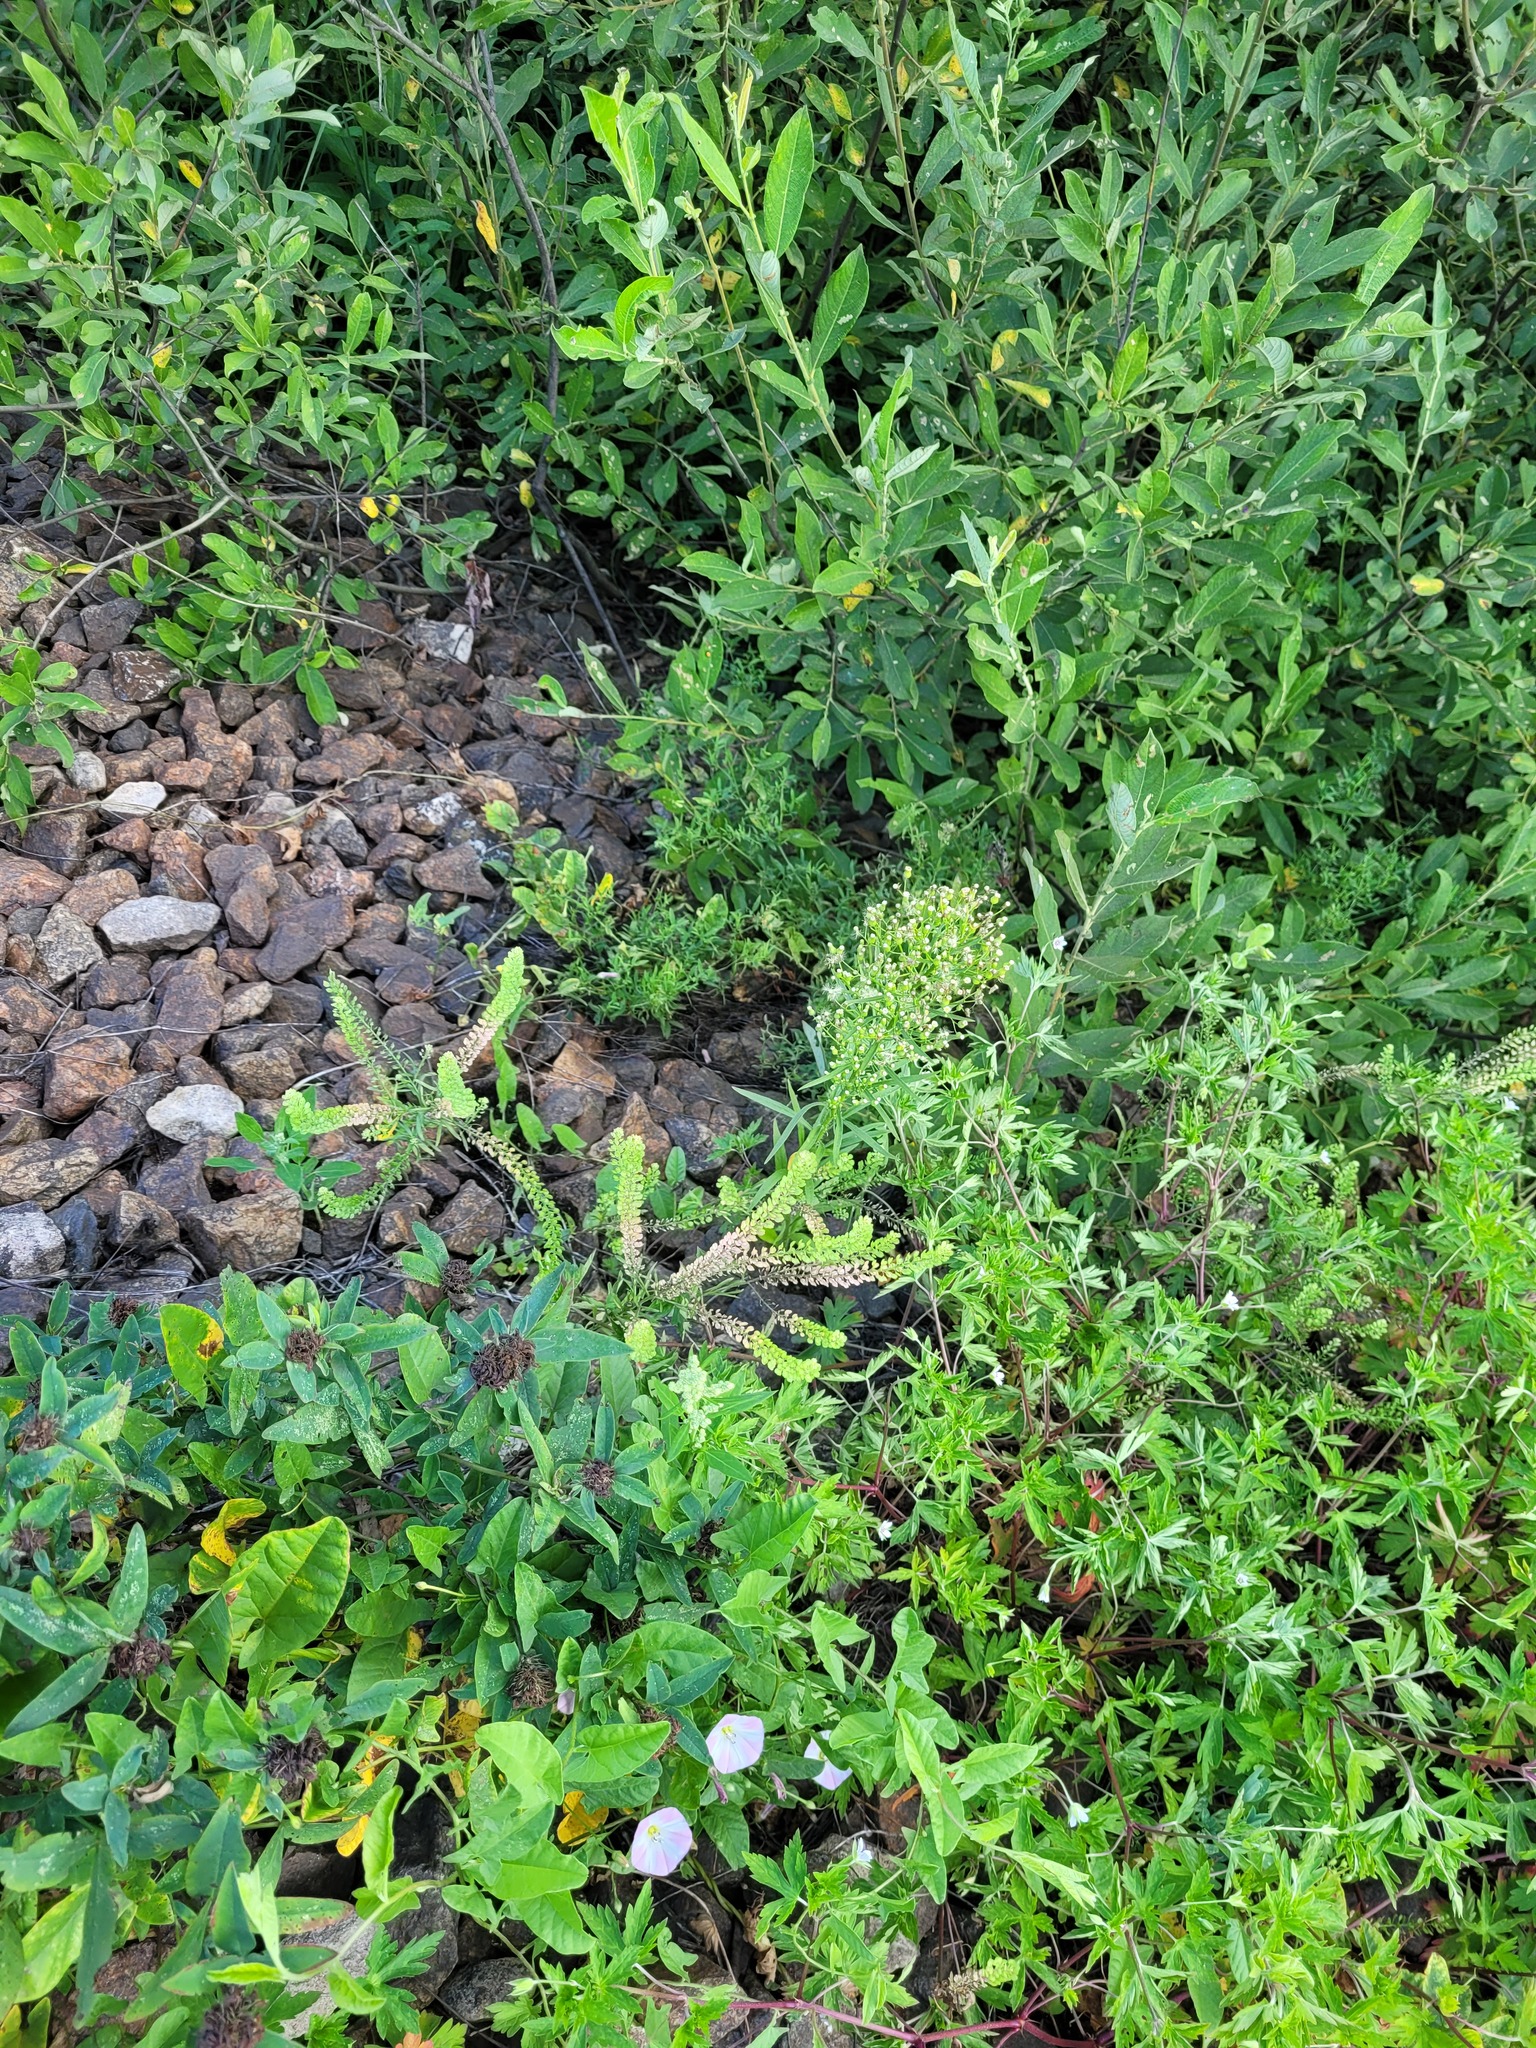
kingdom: Plantae
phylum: Tracheophyta
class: Magnoliopsida
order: Brassicales
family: Brassicaceae
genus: Lepidium
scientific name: Lepidium densiflorum
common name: Miner's pepperwort
